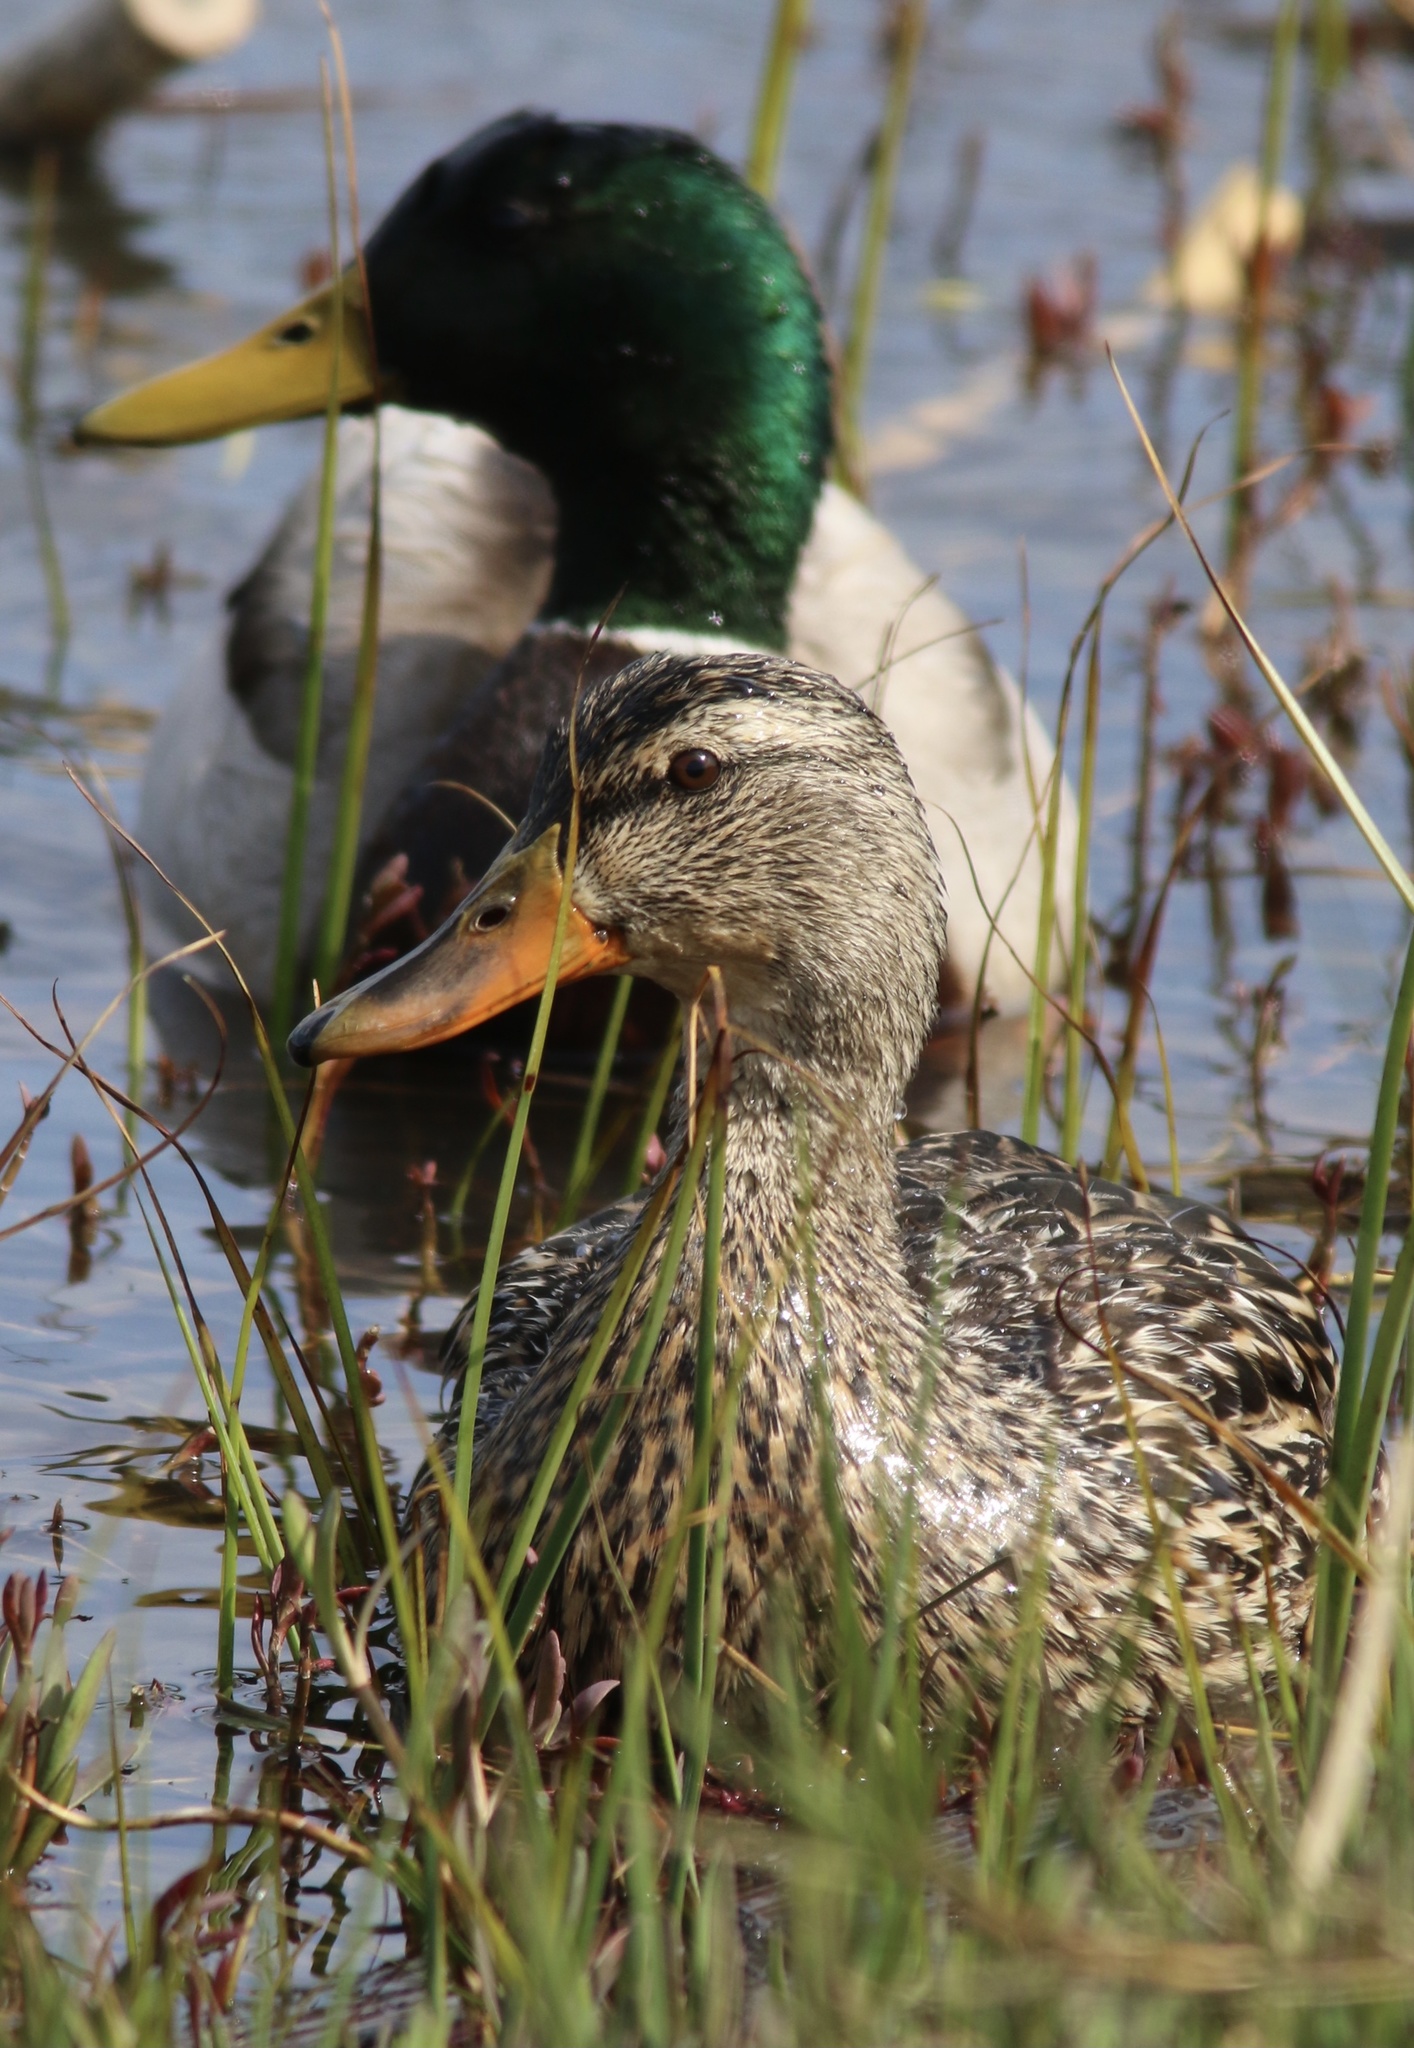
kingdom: Animalia
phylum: Chordata
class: Aves
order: Anseriformes
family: Anatidae
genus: Anas
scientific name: Anas platyrhynchos
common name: Mallard
